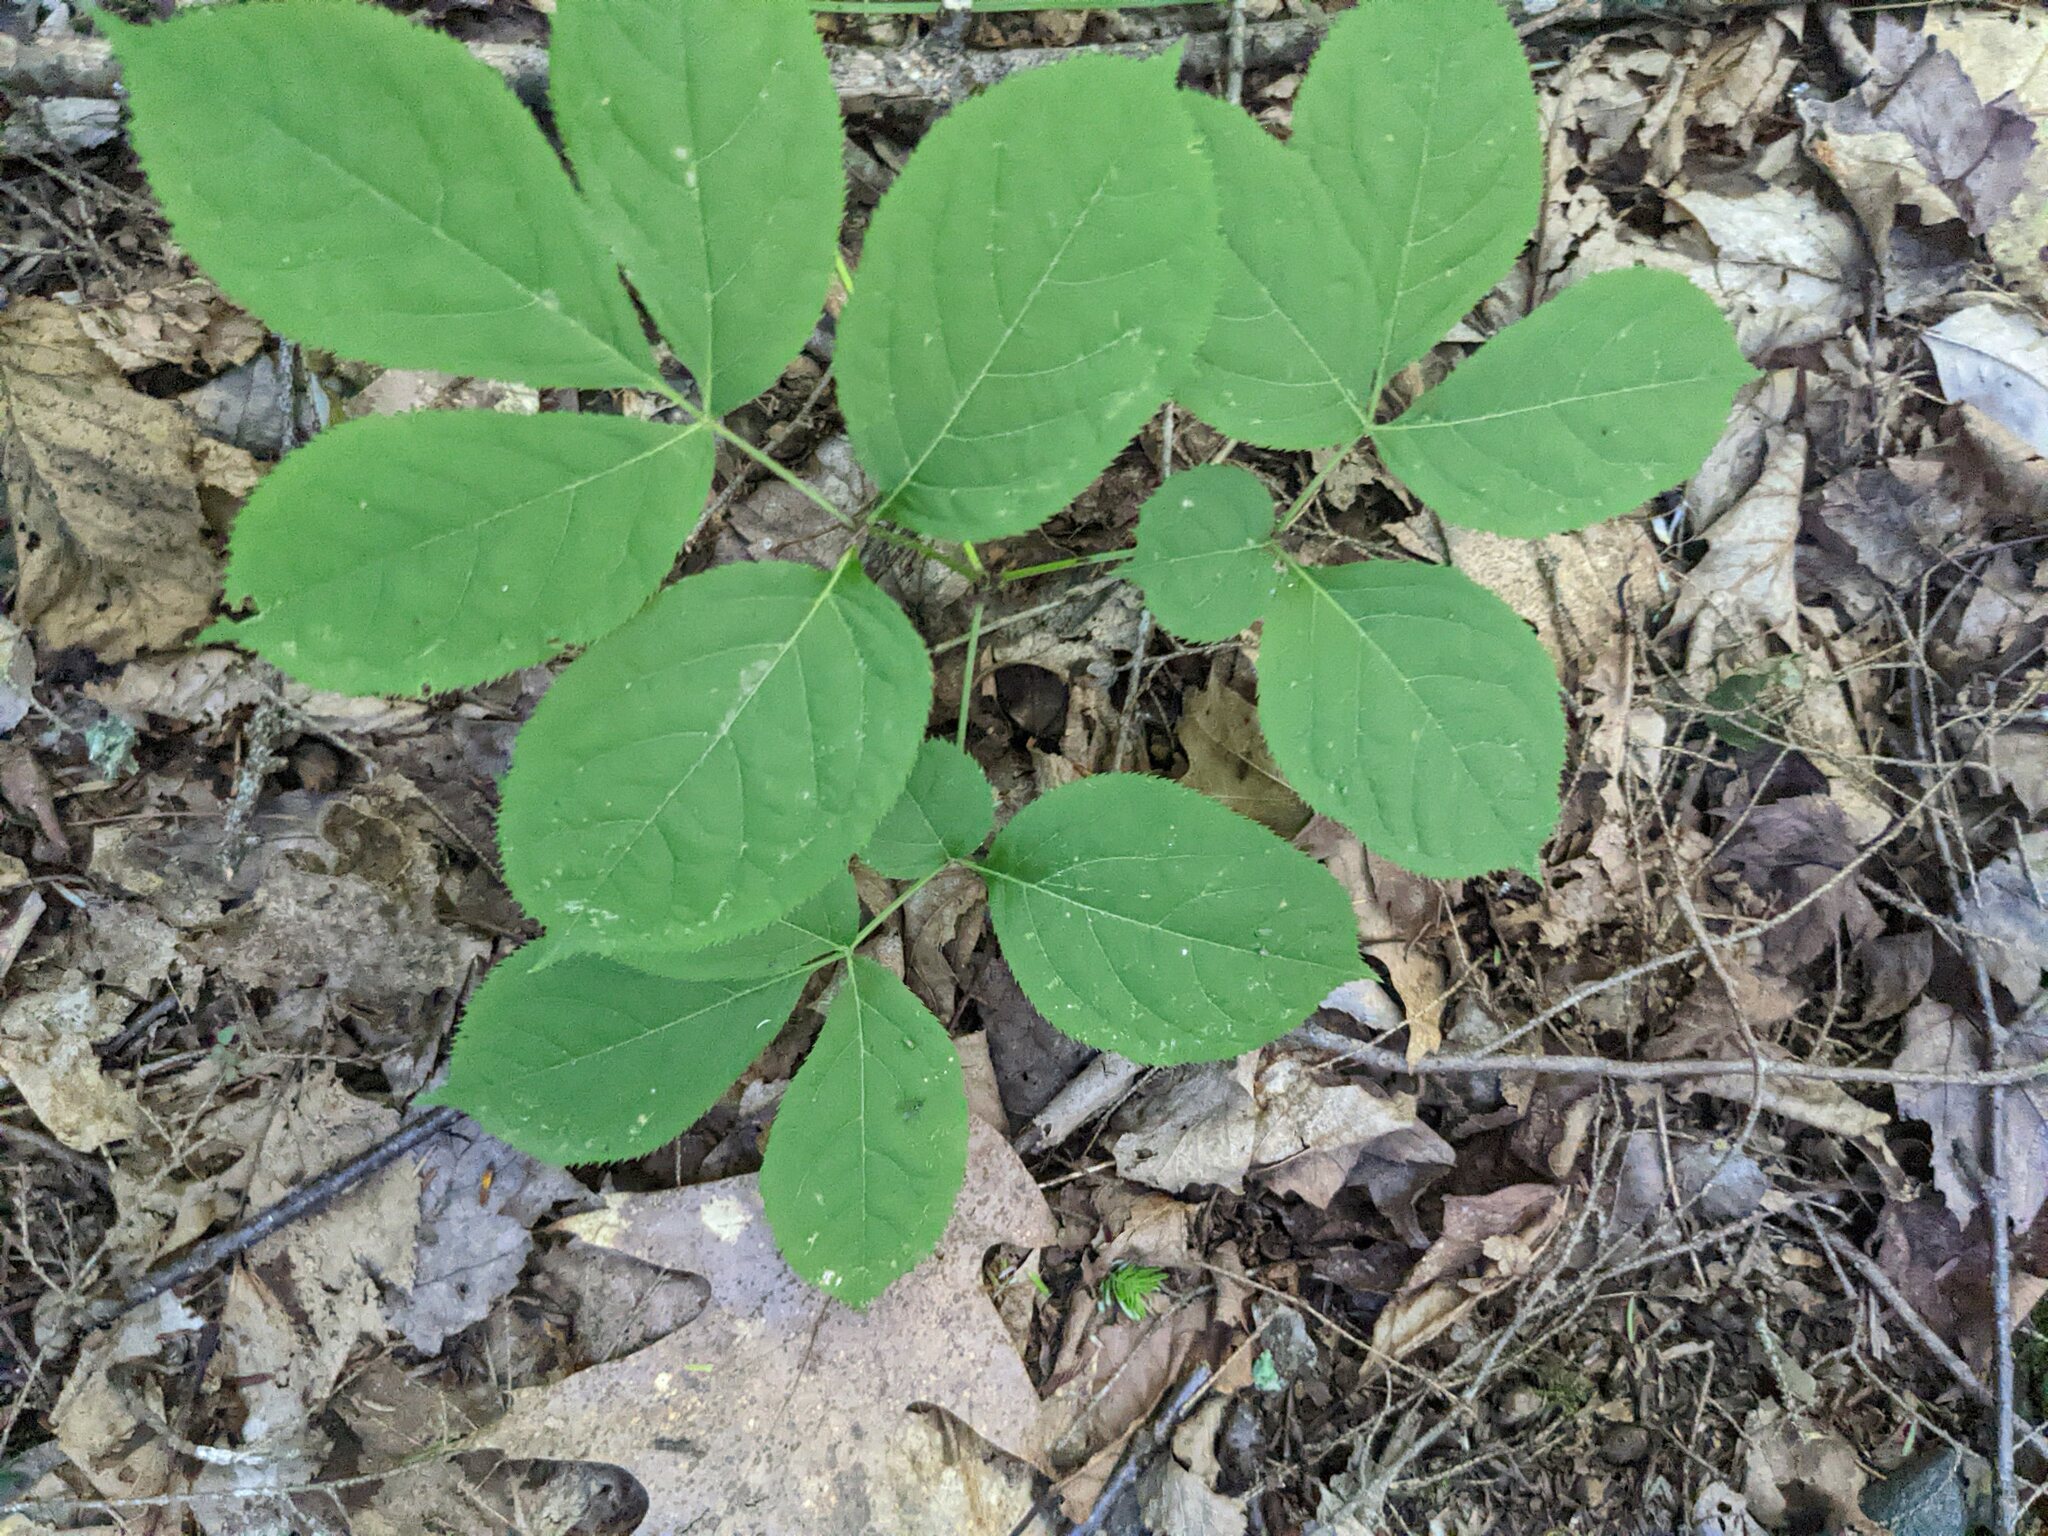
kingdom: Plantae
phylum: Tracheophyta
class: Magnoliopsida
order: Apiales
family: Araliaceae
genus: Aralia
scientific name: Aralia nudicaulis
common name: Wild sarsaparilla
